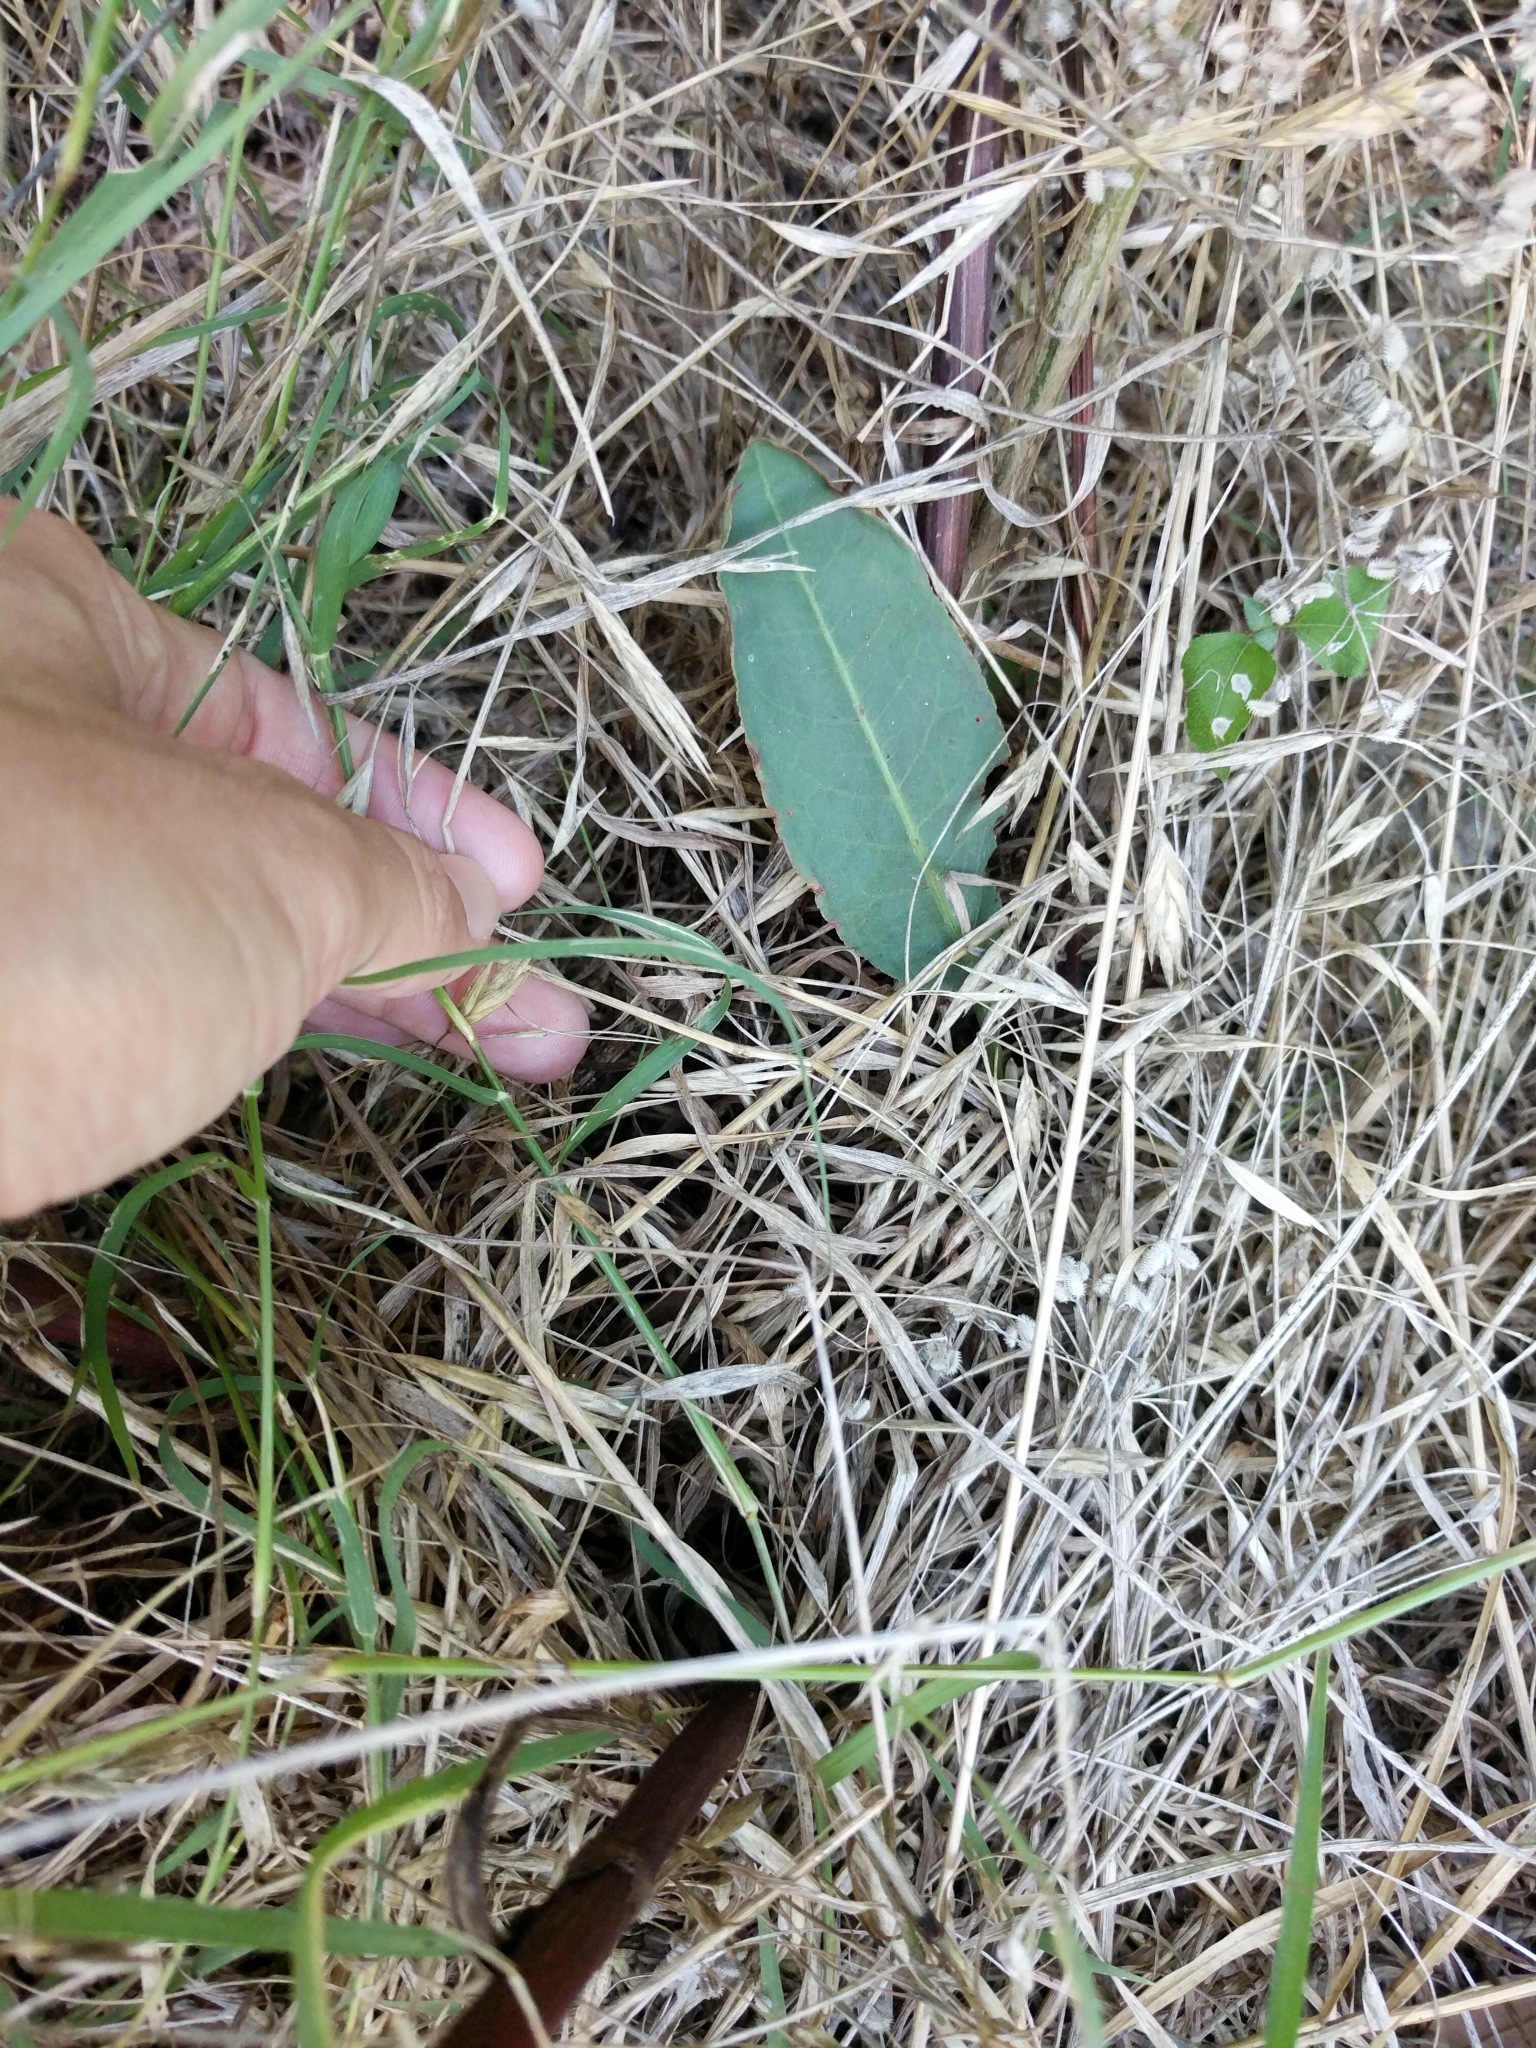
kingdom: Plantae
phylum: Tracheophyta
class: Magnoliopsida
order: Caryophyllales
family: Polygonaceae
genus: Rumex
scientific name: Rumex crispus
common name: Curled dock
